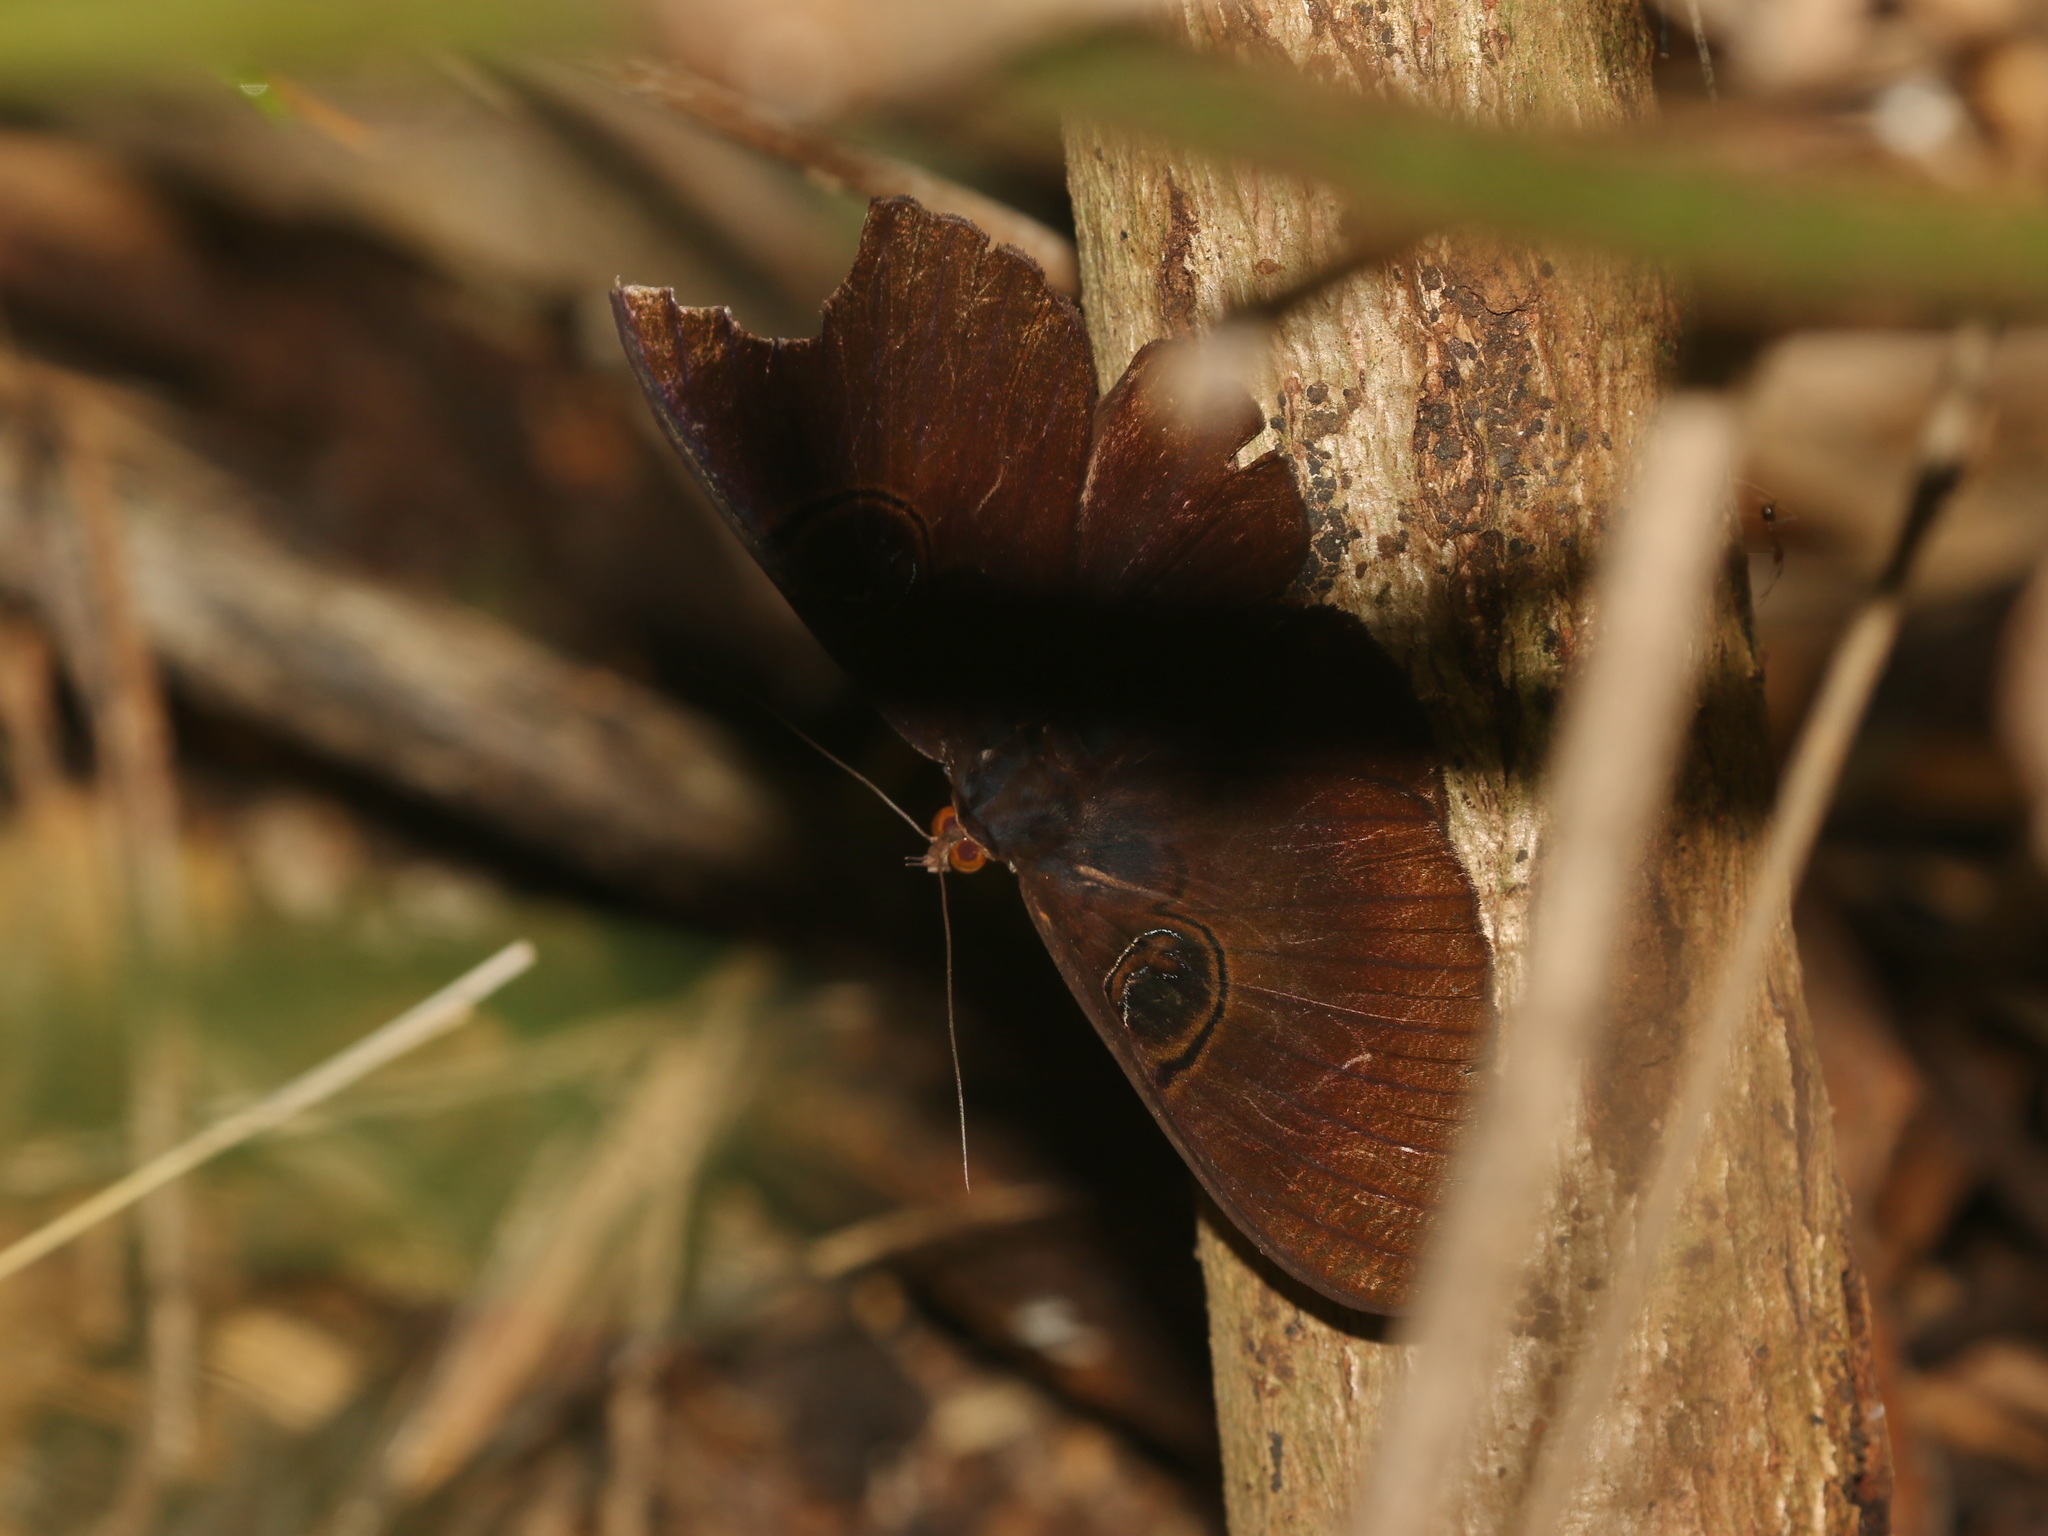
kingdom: Animalia
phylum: Arthropoda
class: Insecta
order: Lepidoptera
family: Erebidae
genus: Erebus
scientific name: Erebus caprimulgus
